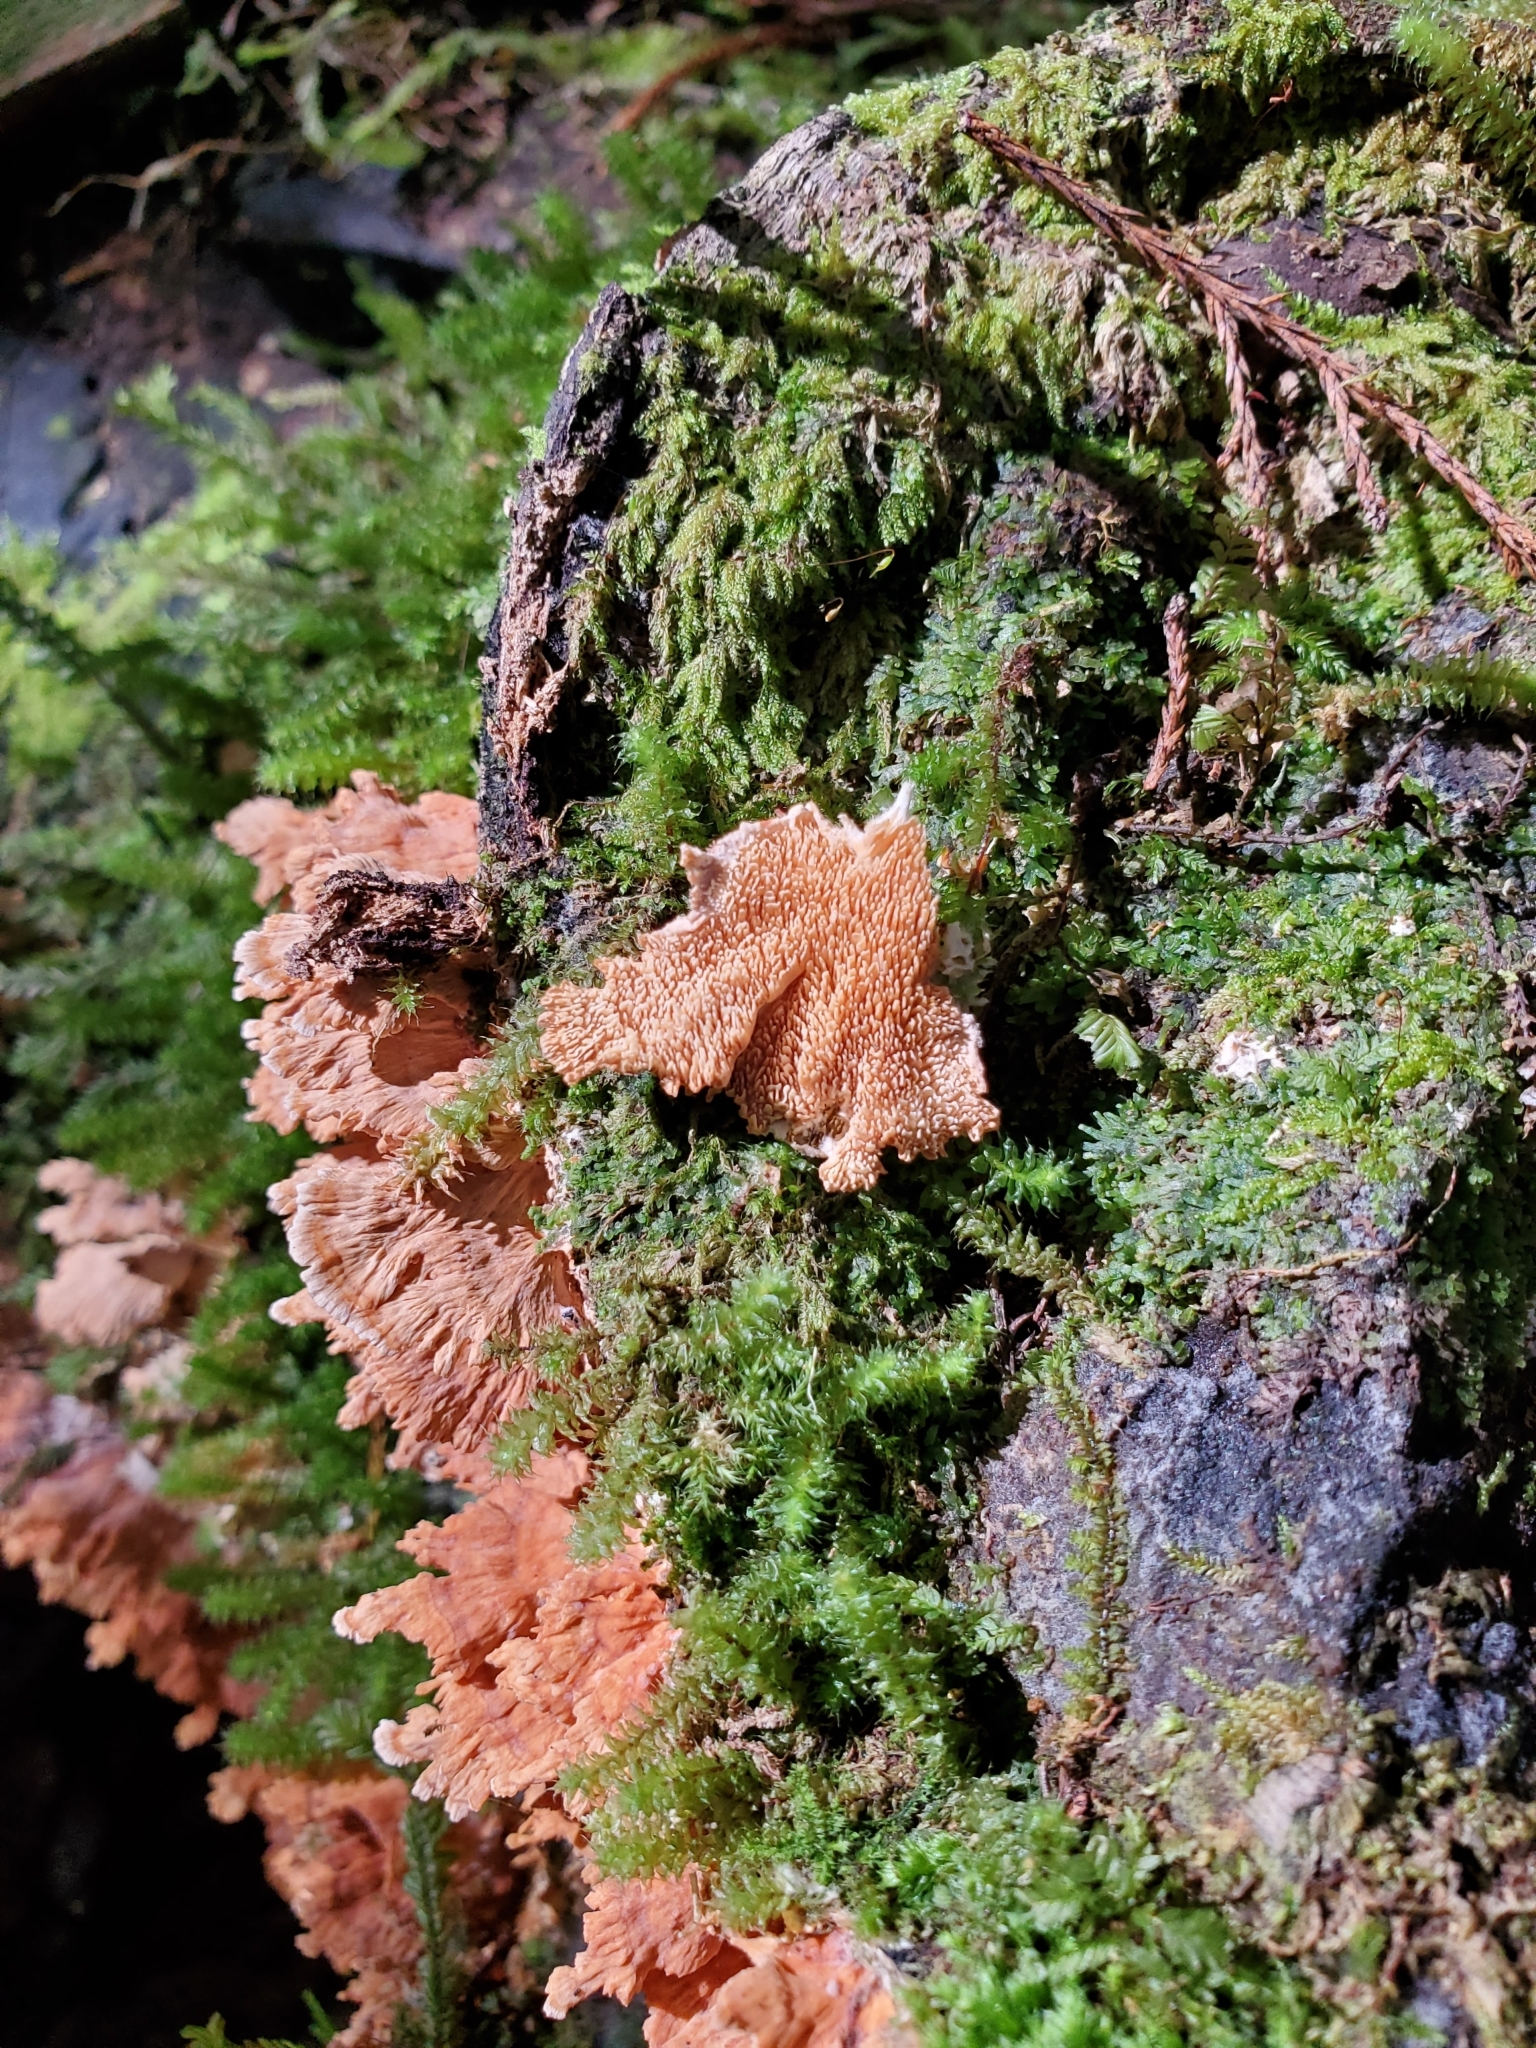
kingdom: Fungi
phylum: Basidiomycota
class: Agaricomycetes
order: Polyporales
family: Cerrenaceae
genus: Cerrena
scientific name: Cerrena zonata
